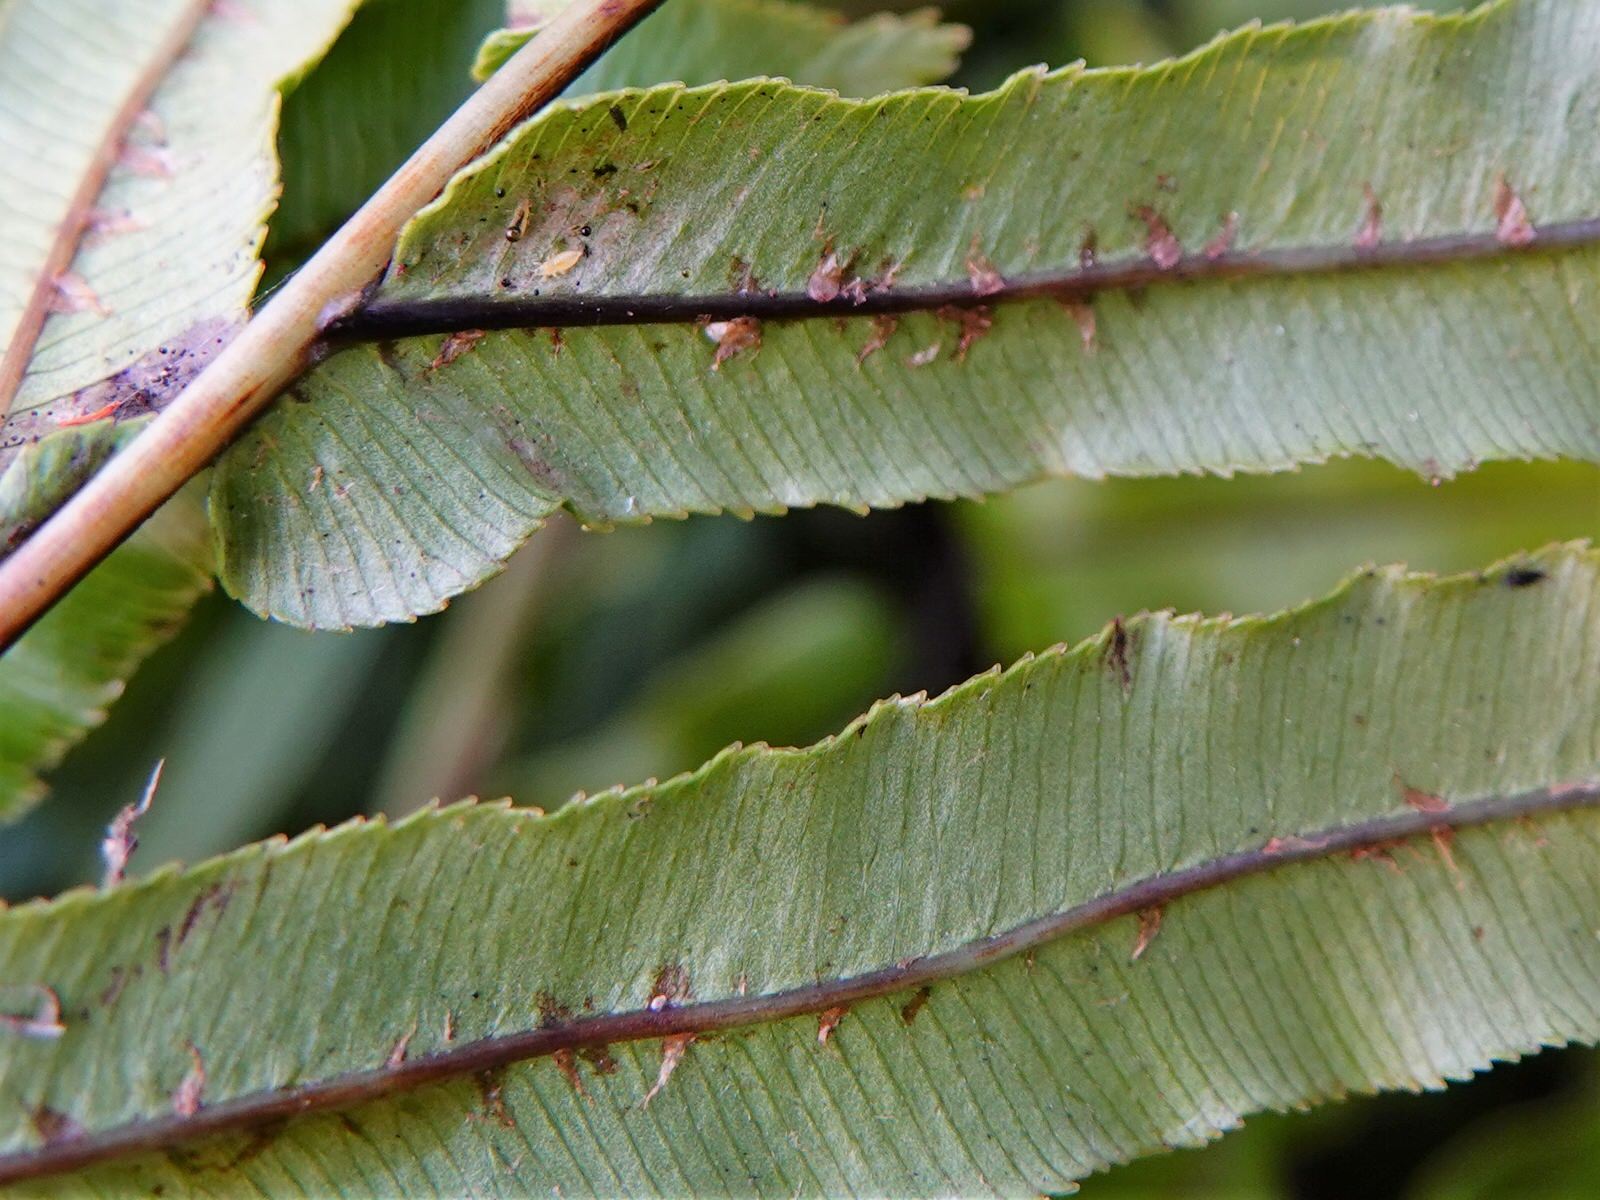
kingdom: Plantae
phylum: Tracheophyta
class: Polypodiopsida
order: Polypodiales
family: Blechnaceae
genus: Parablechnum
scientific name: Parablechnum minus
